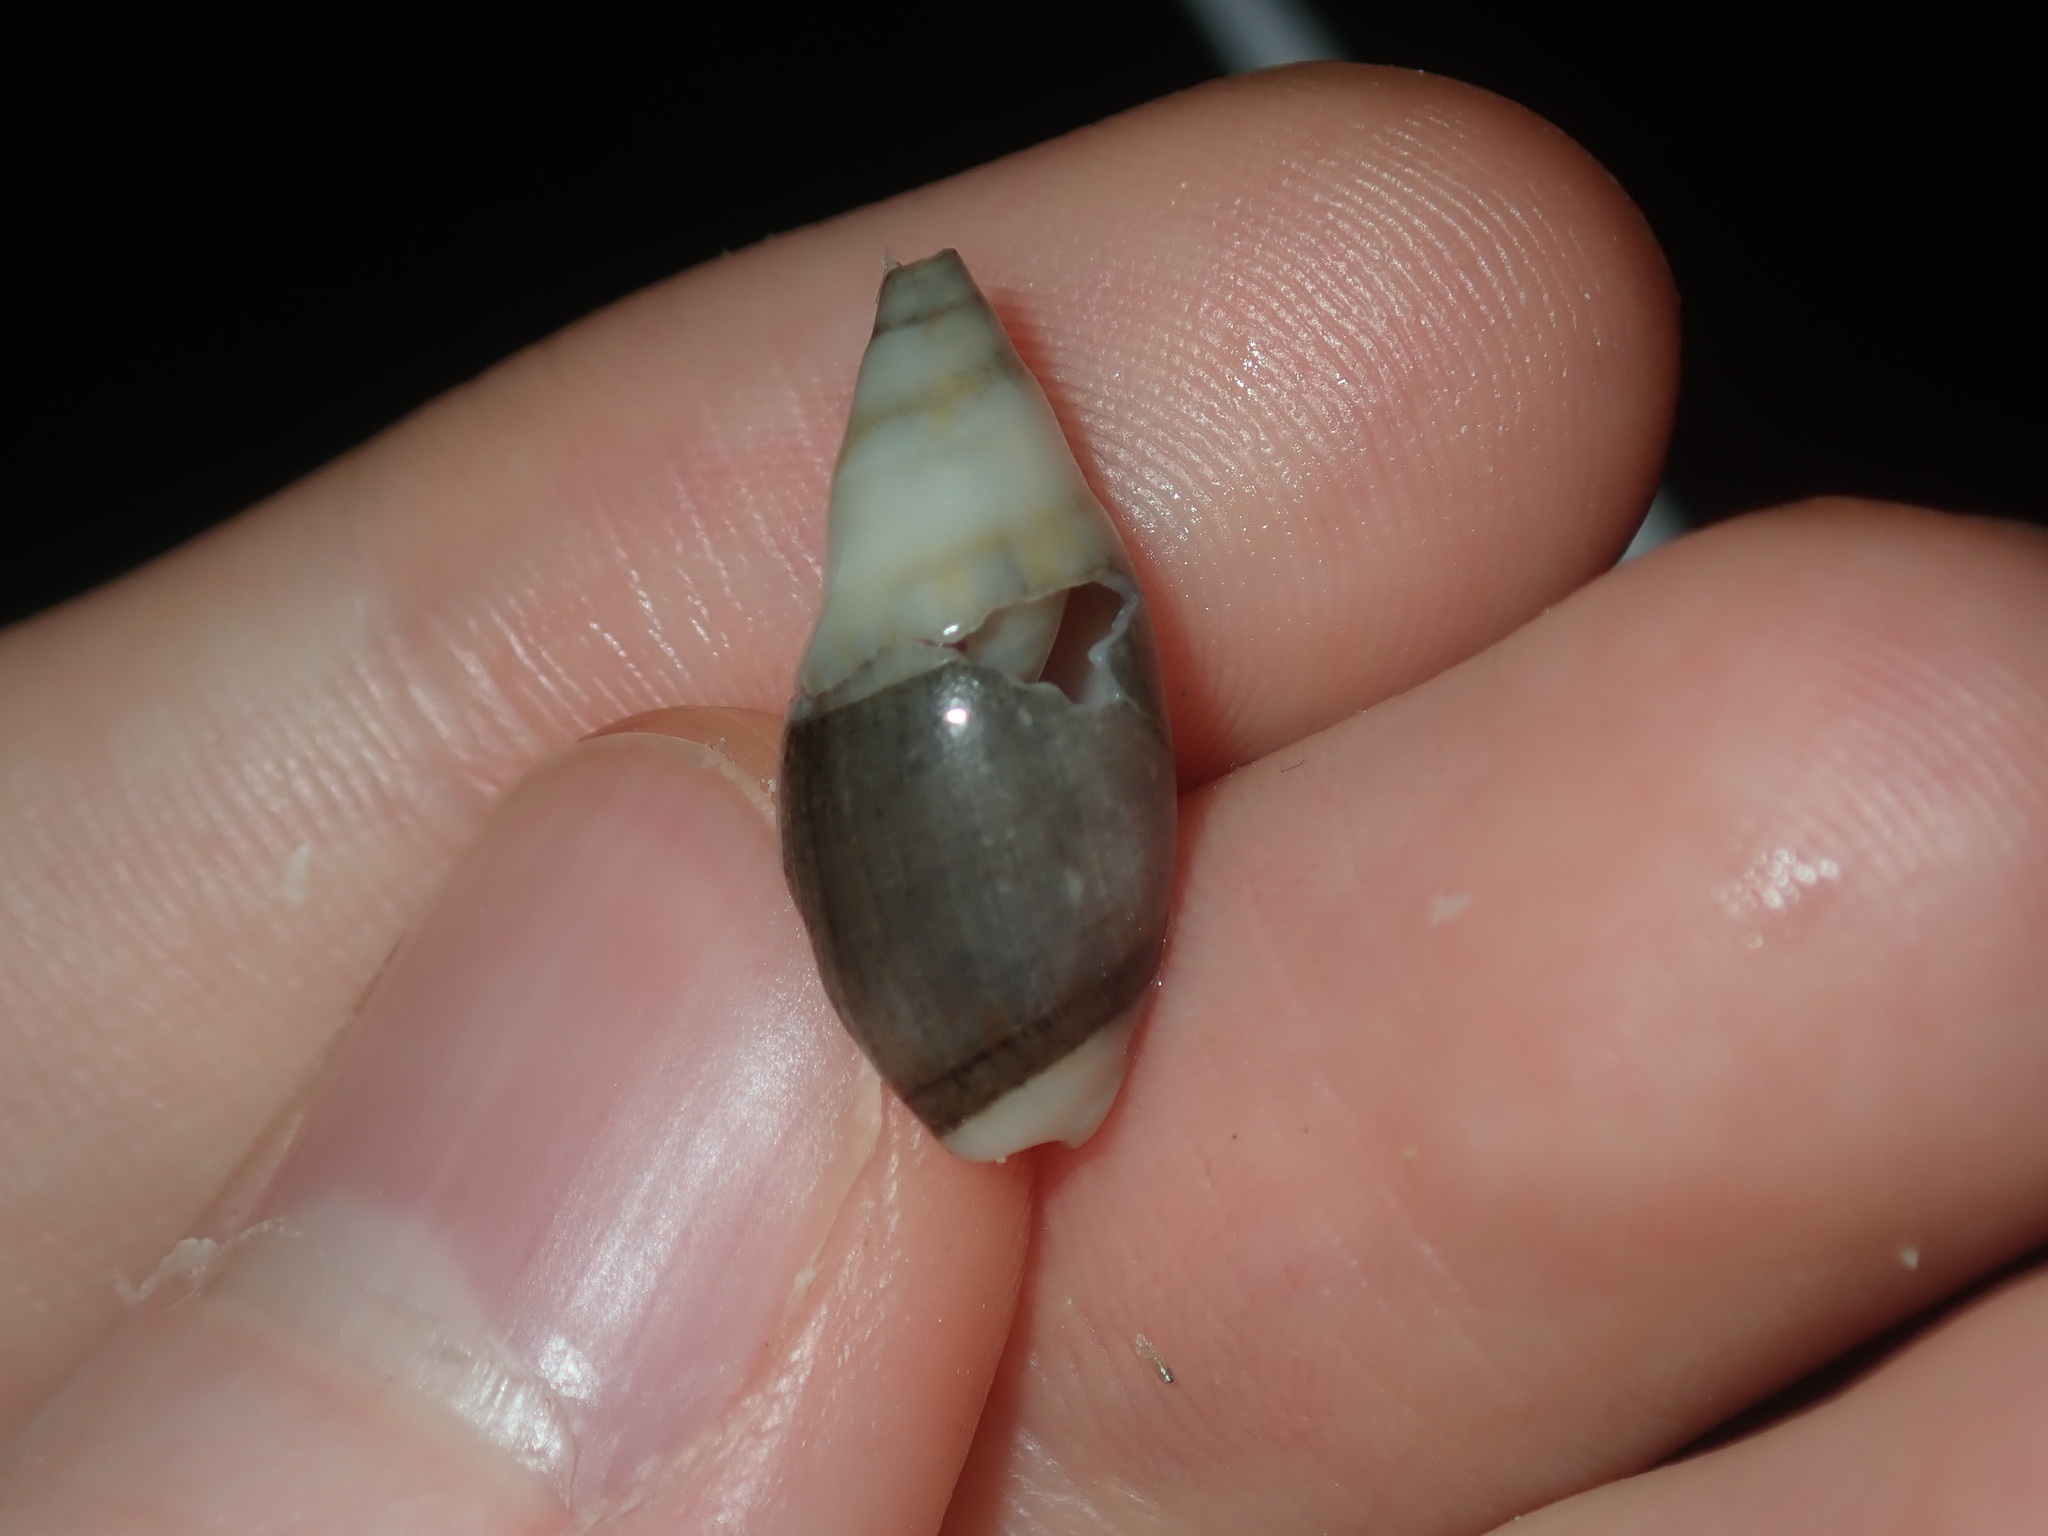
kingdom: Animalia
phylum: Mollusca
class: Gastropoda
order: Neogastropoda
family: Ancillariidae
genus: Amalda
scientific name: Amalda oblonga
